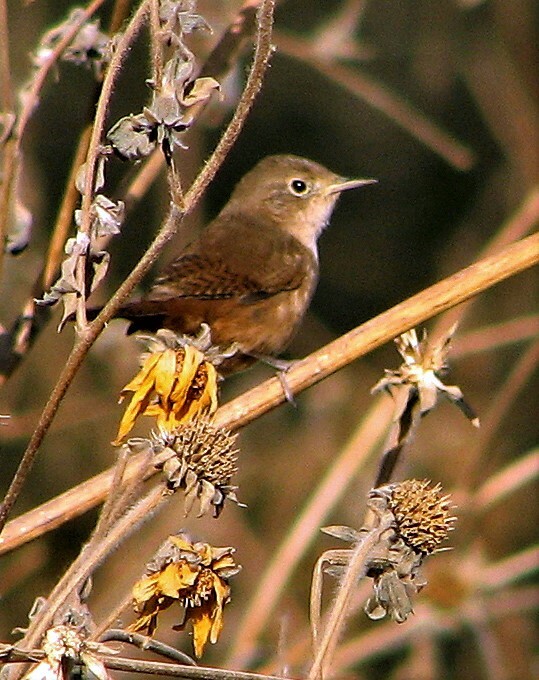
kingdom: Animalia
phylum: Chordata
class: Aves
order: Passeriformes
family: Troglodytidae
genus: Troglodytes
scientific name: Troglodytes aedon
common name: House wren
